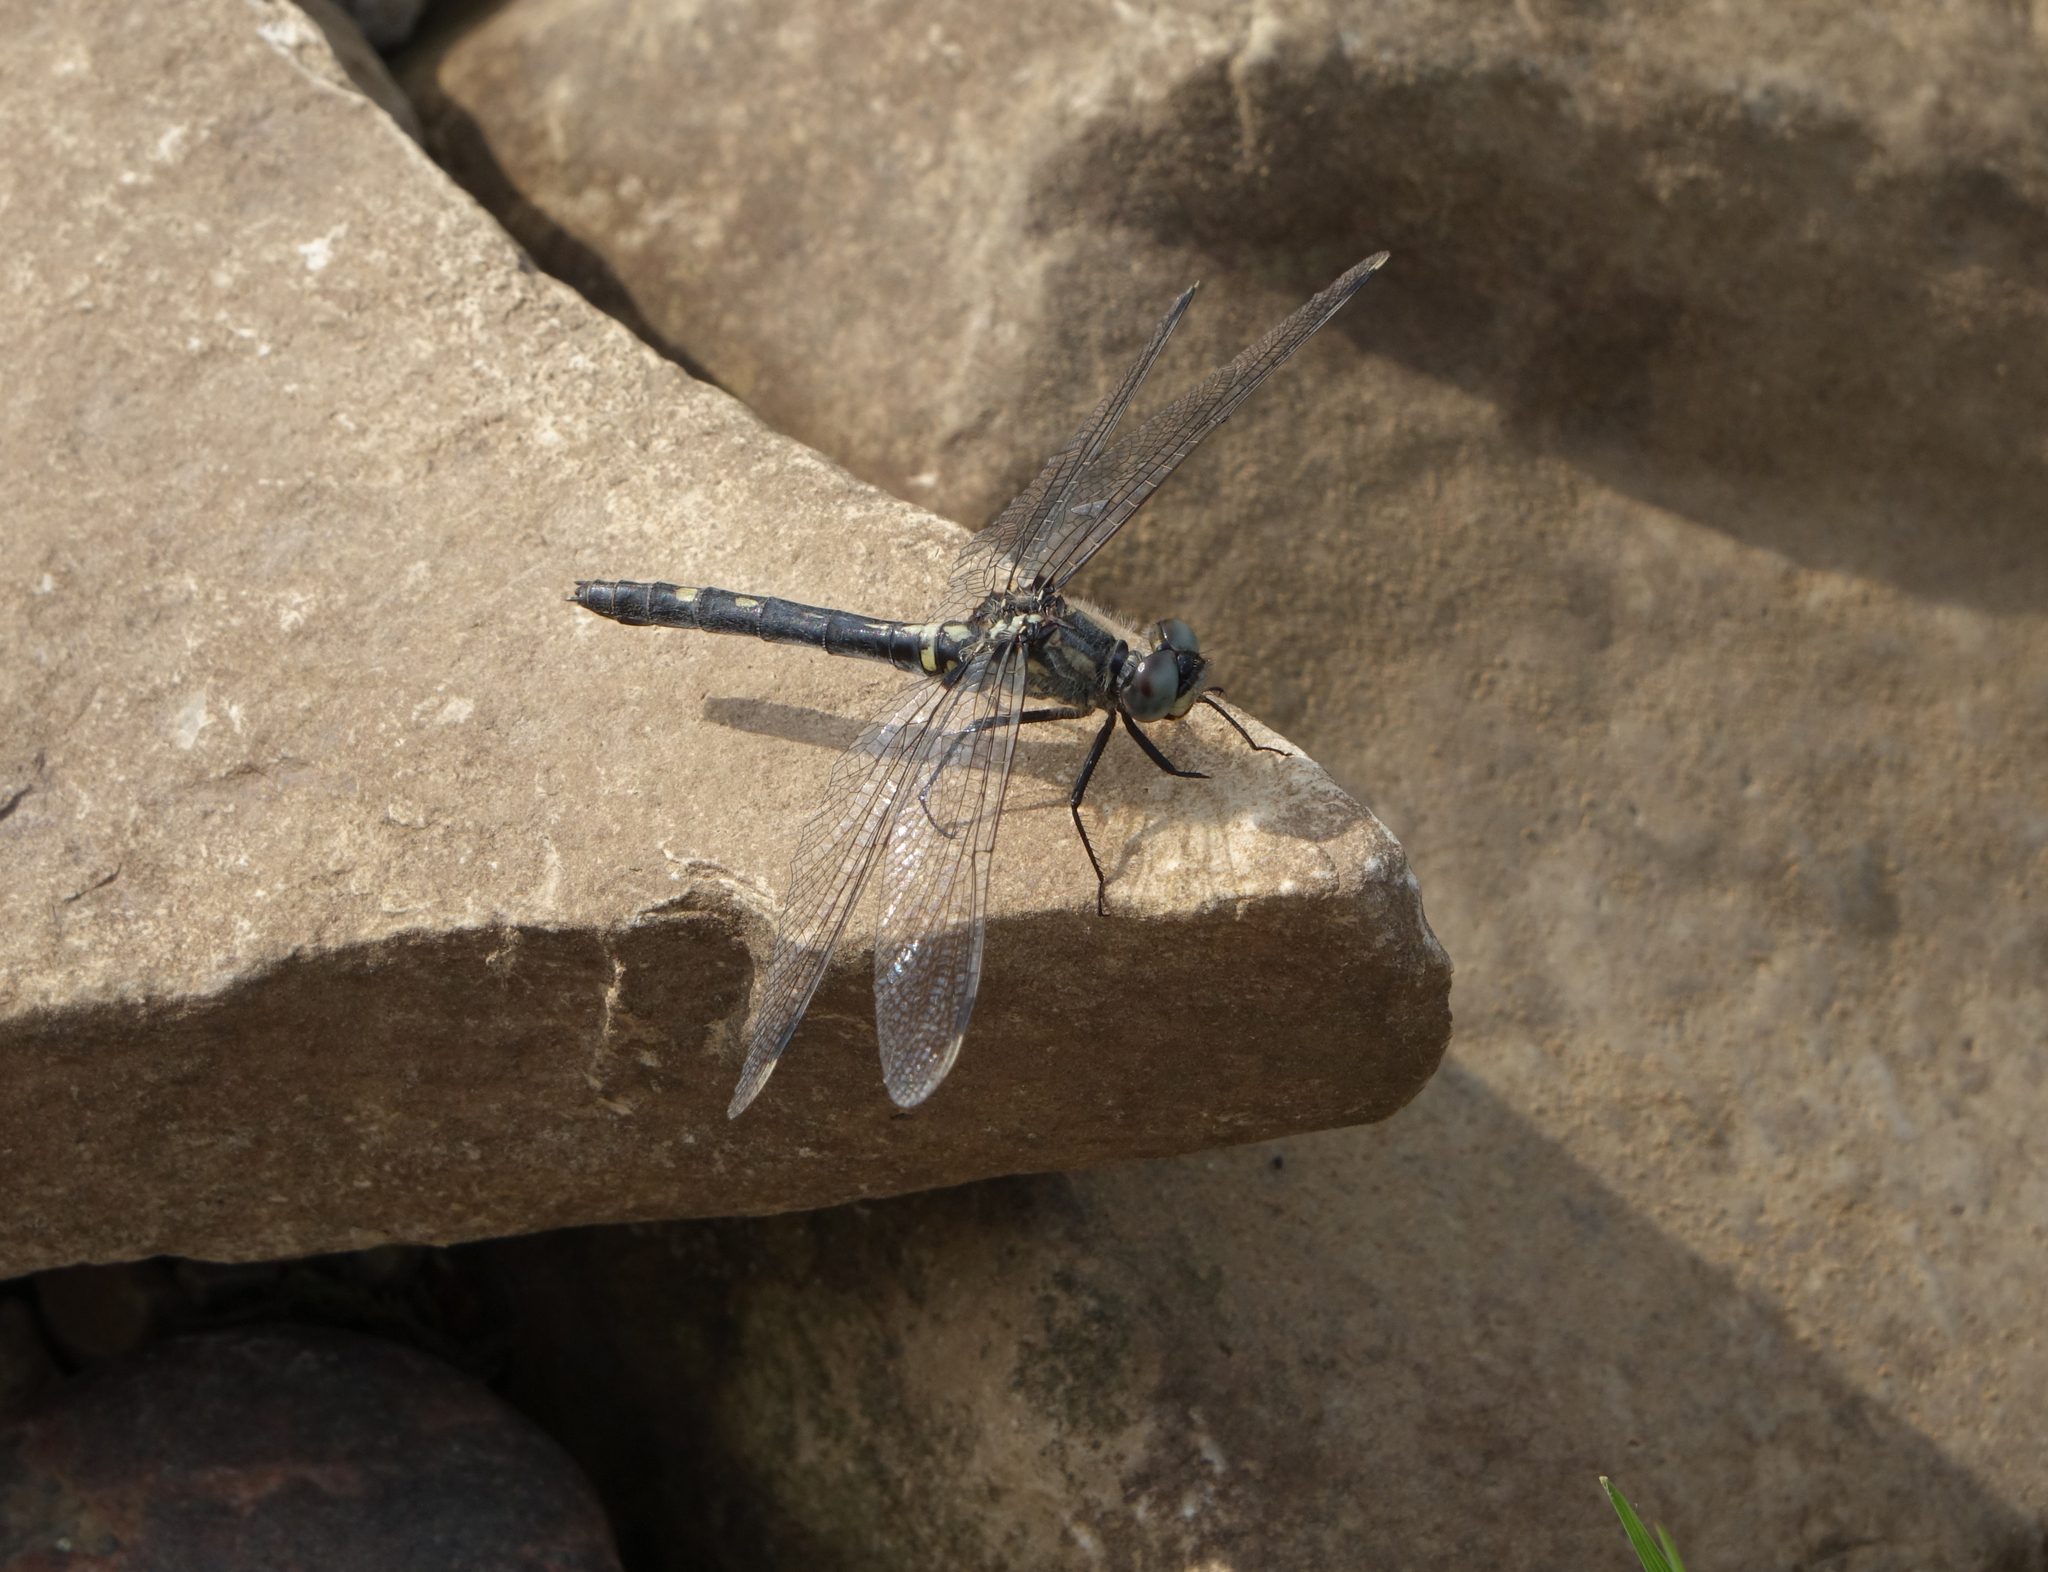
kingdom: Animalia
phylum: Arthropoda
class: Insecta
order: Odonata
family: Libellulidae
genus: Leucorrhinia
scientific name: Leucorrhinia orientalis
